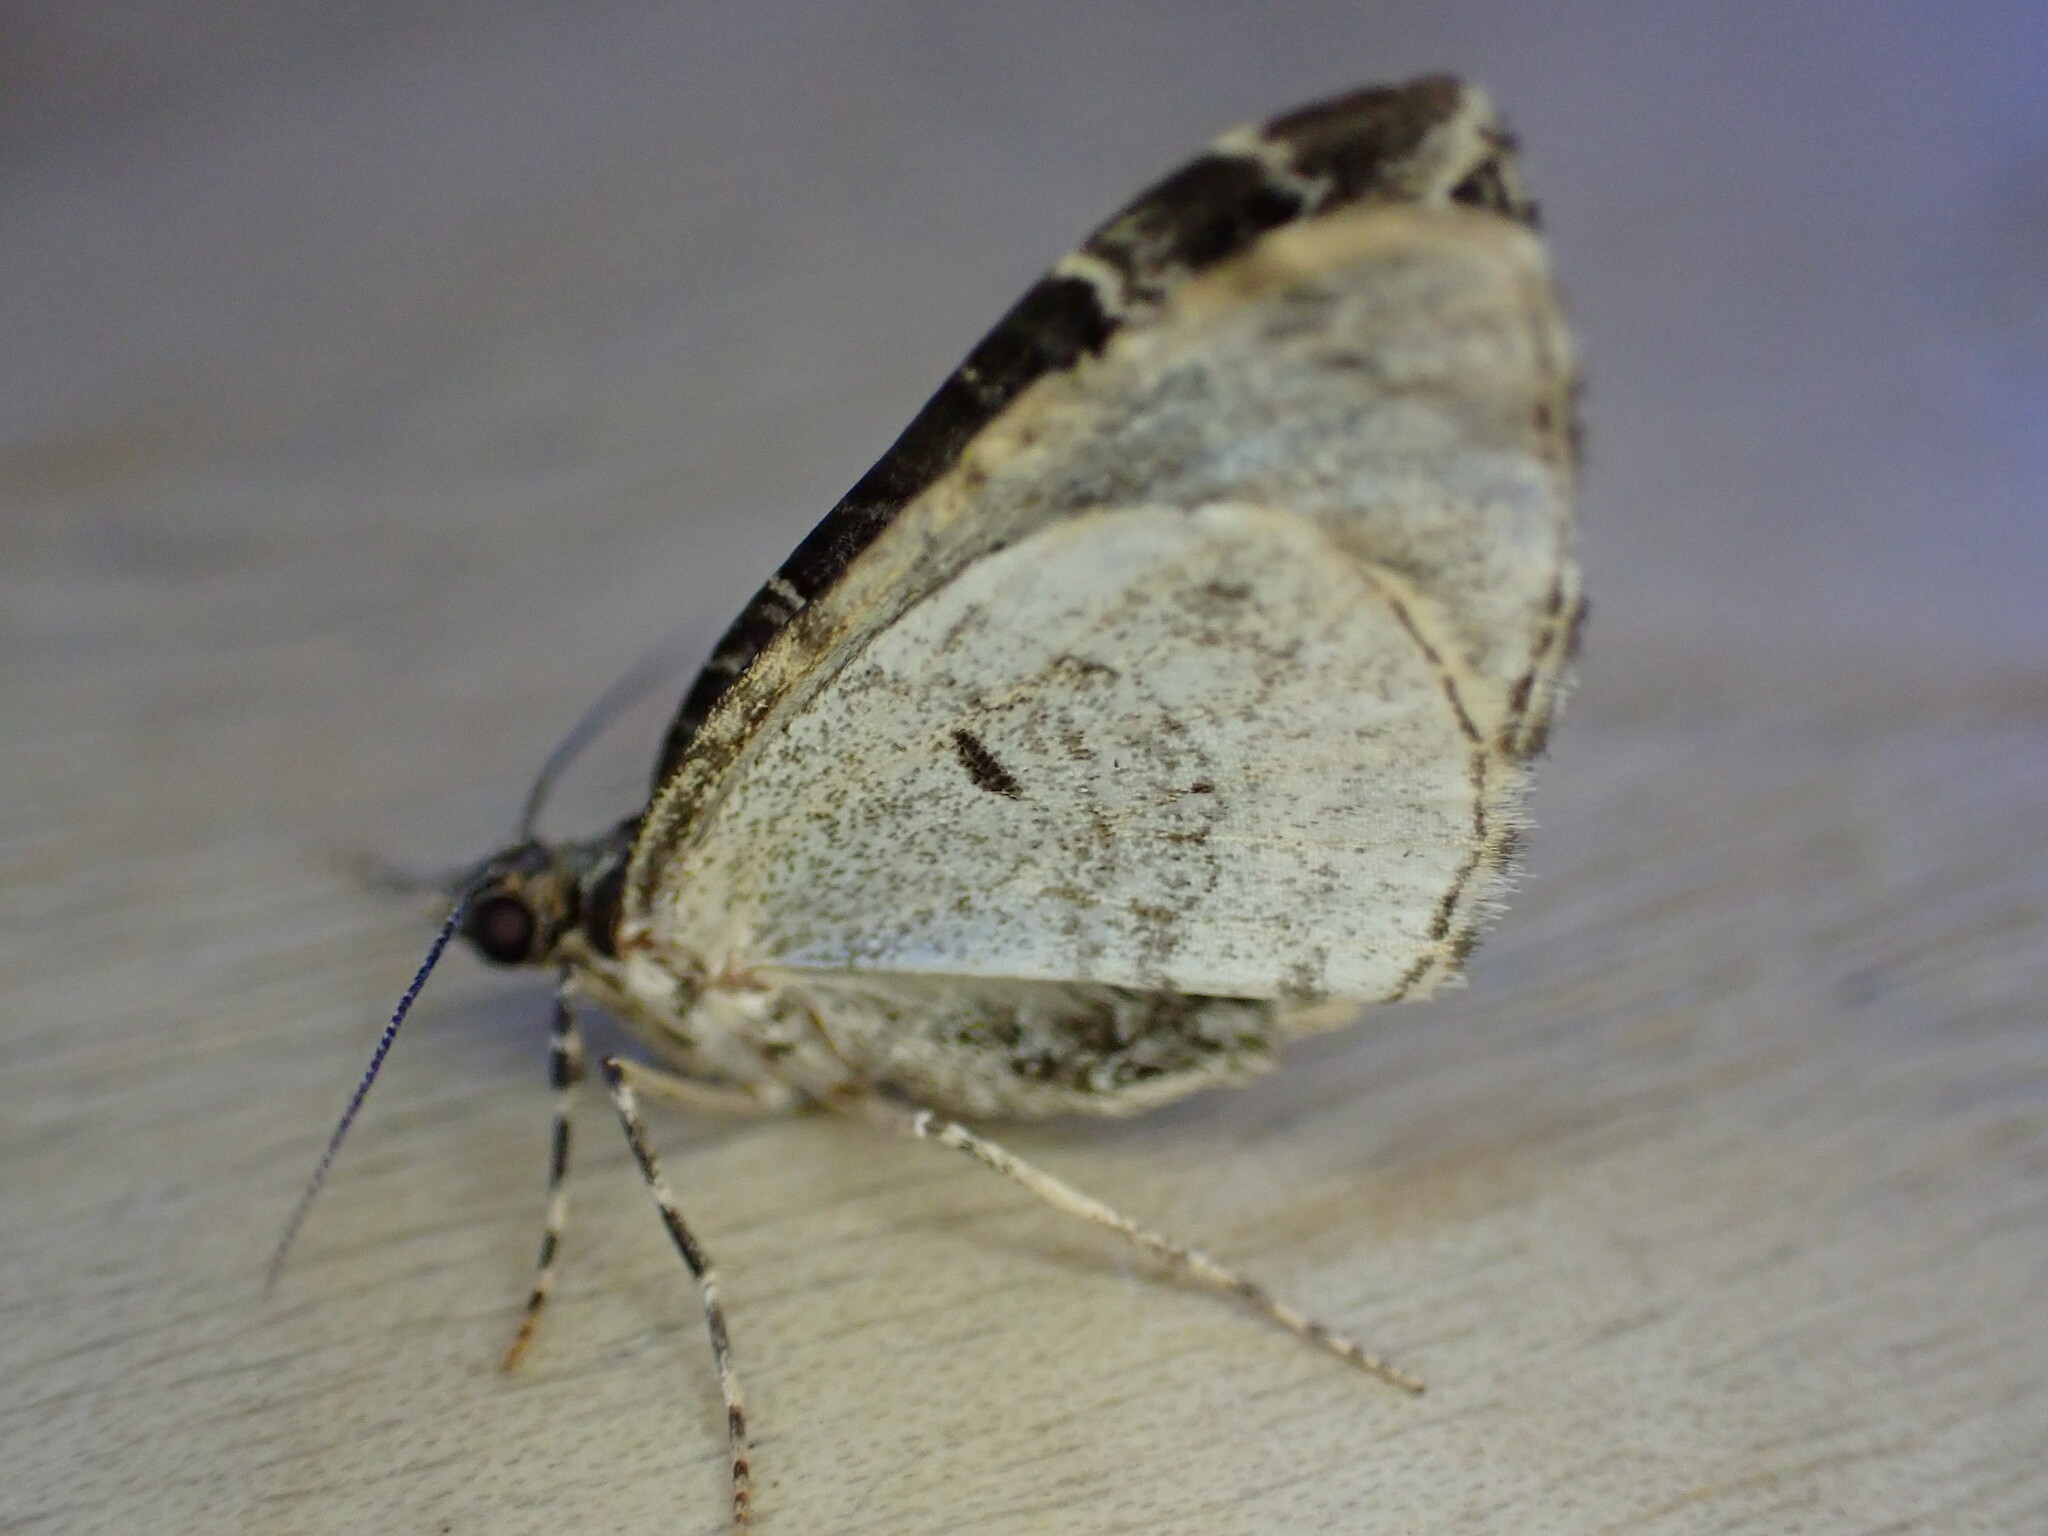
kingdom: Animalia
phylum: Arthropoda
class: Insecta
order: Lepidoptera
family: Geometridae
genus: Ecliptopera
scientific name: Ecliptopera silaceata
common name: Small phoenix
